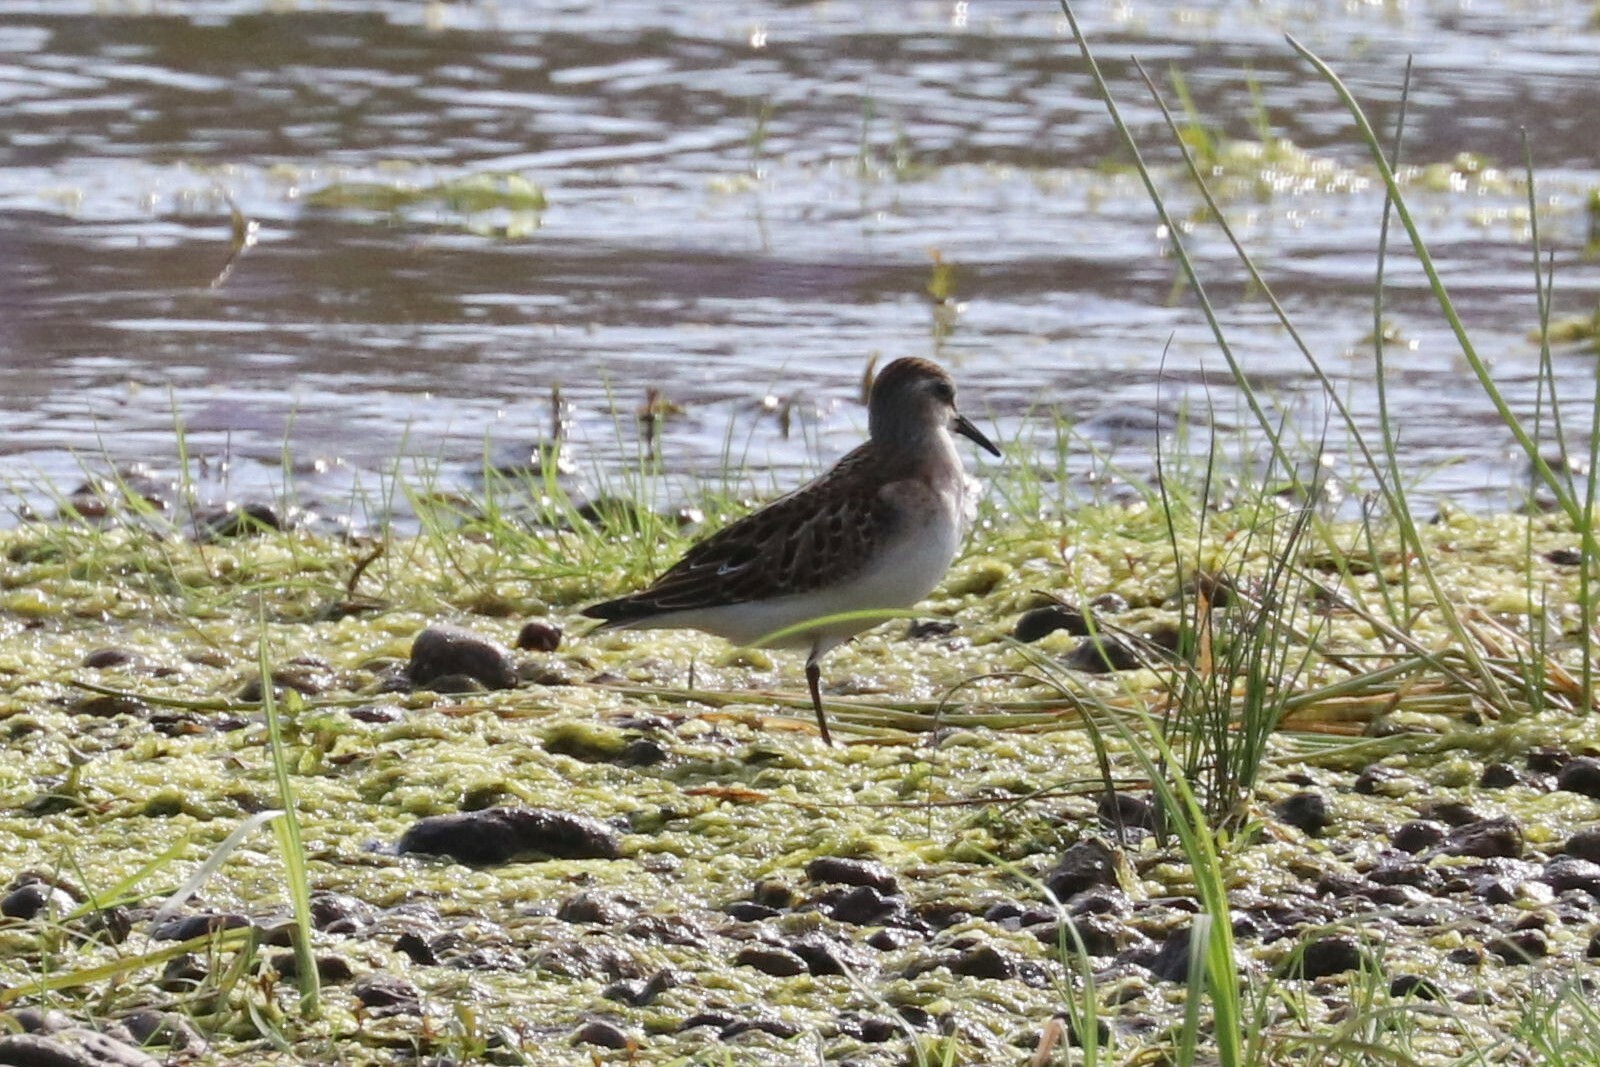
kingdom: Animalia
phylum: Chordata
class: Aves
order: Charadriiformes
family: Scolopacidae
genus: Calidris
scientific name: Calidris minuta
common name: Little stint
